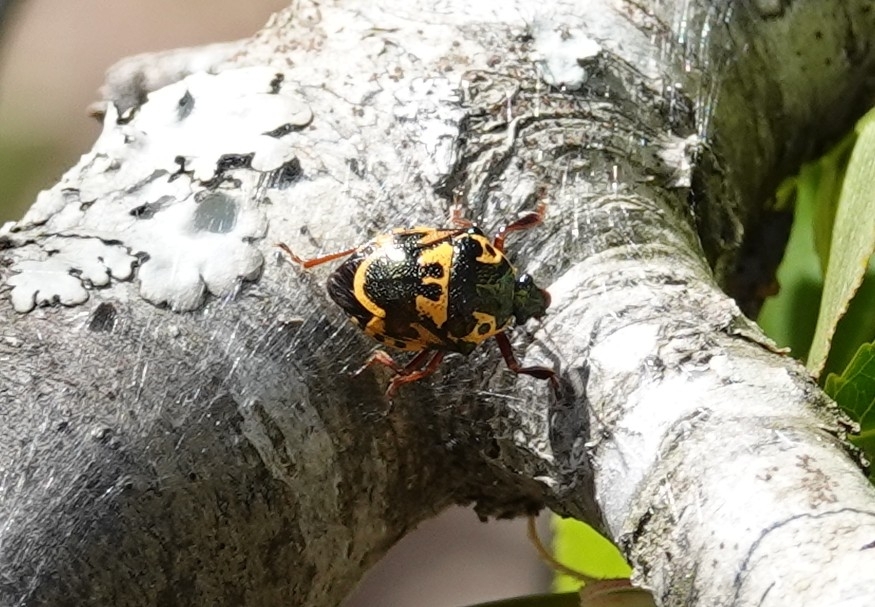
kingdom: Animalia
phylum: Arthropoda
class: Insecta
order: Hemiptera
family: Pentatomidae
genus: Stiretrus
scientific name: Stiretrus anchorago
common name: Anchor stink bug
